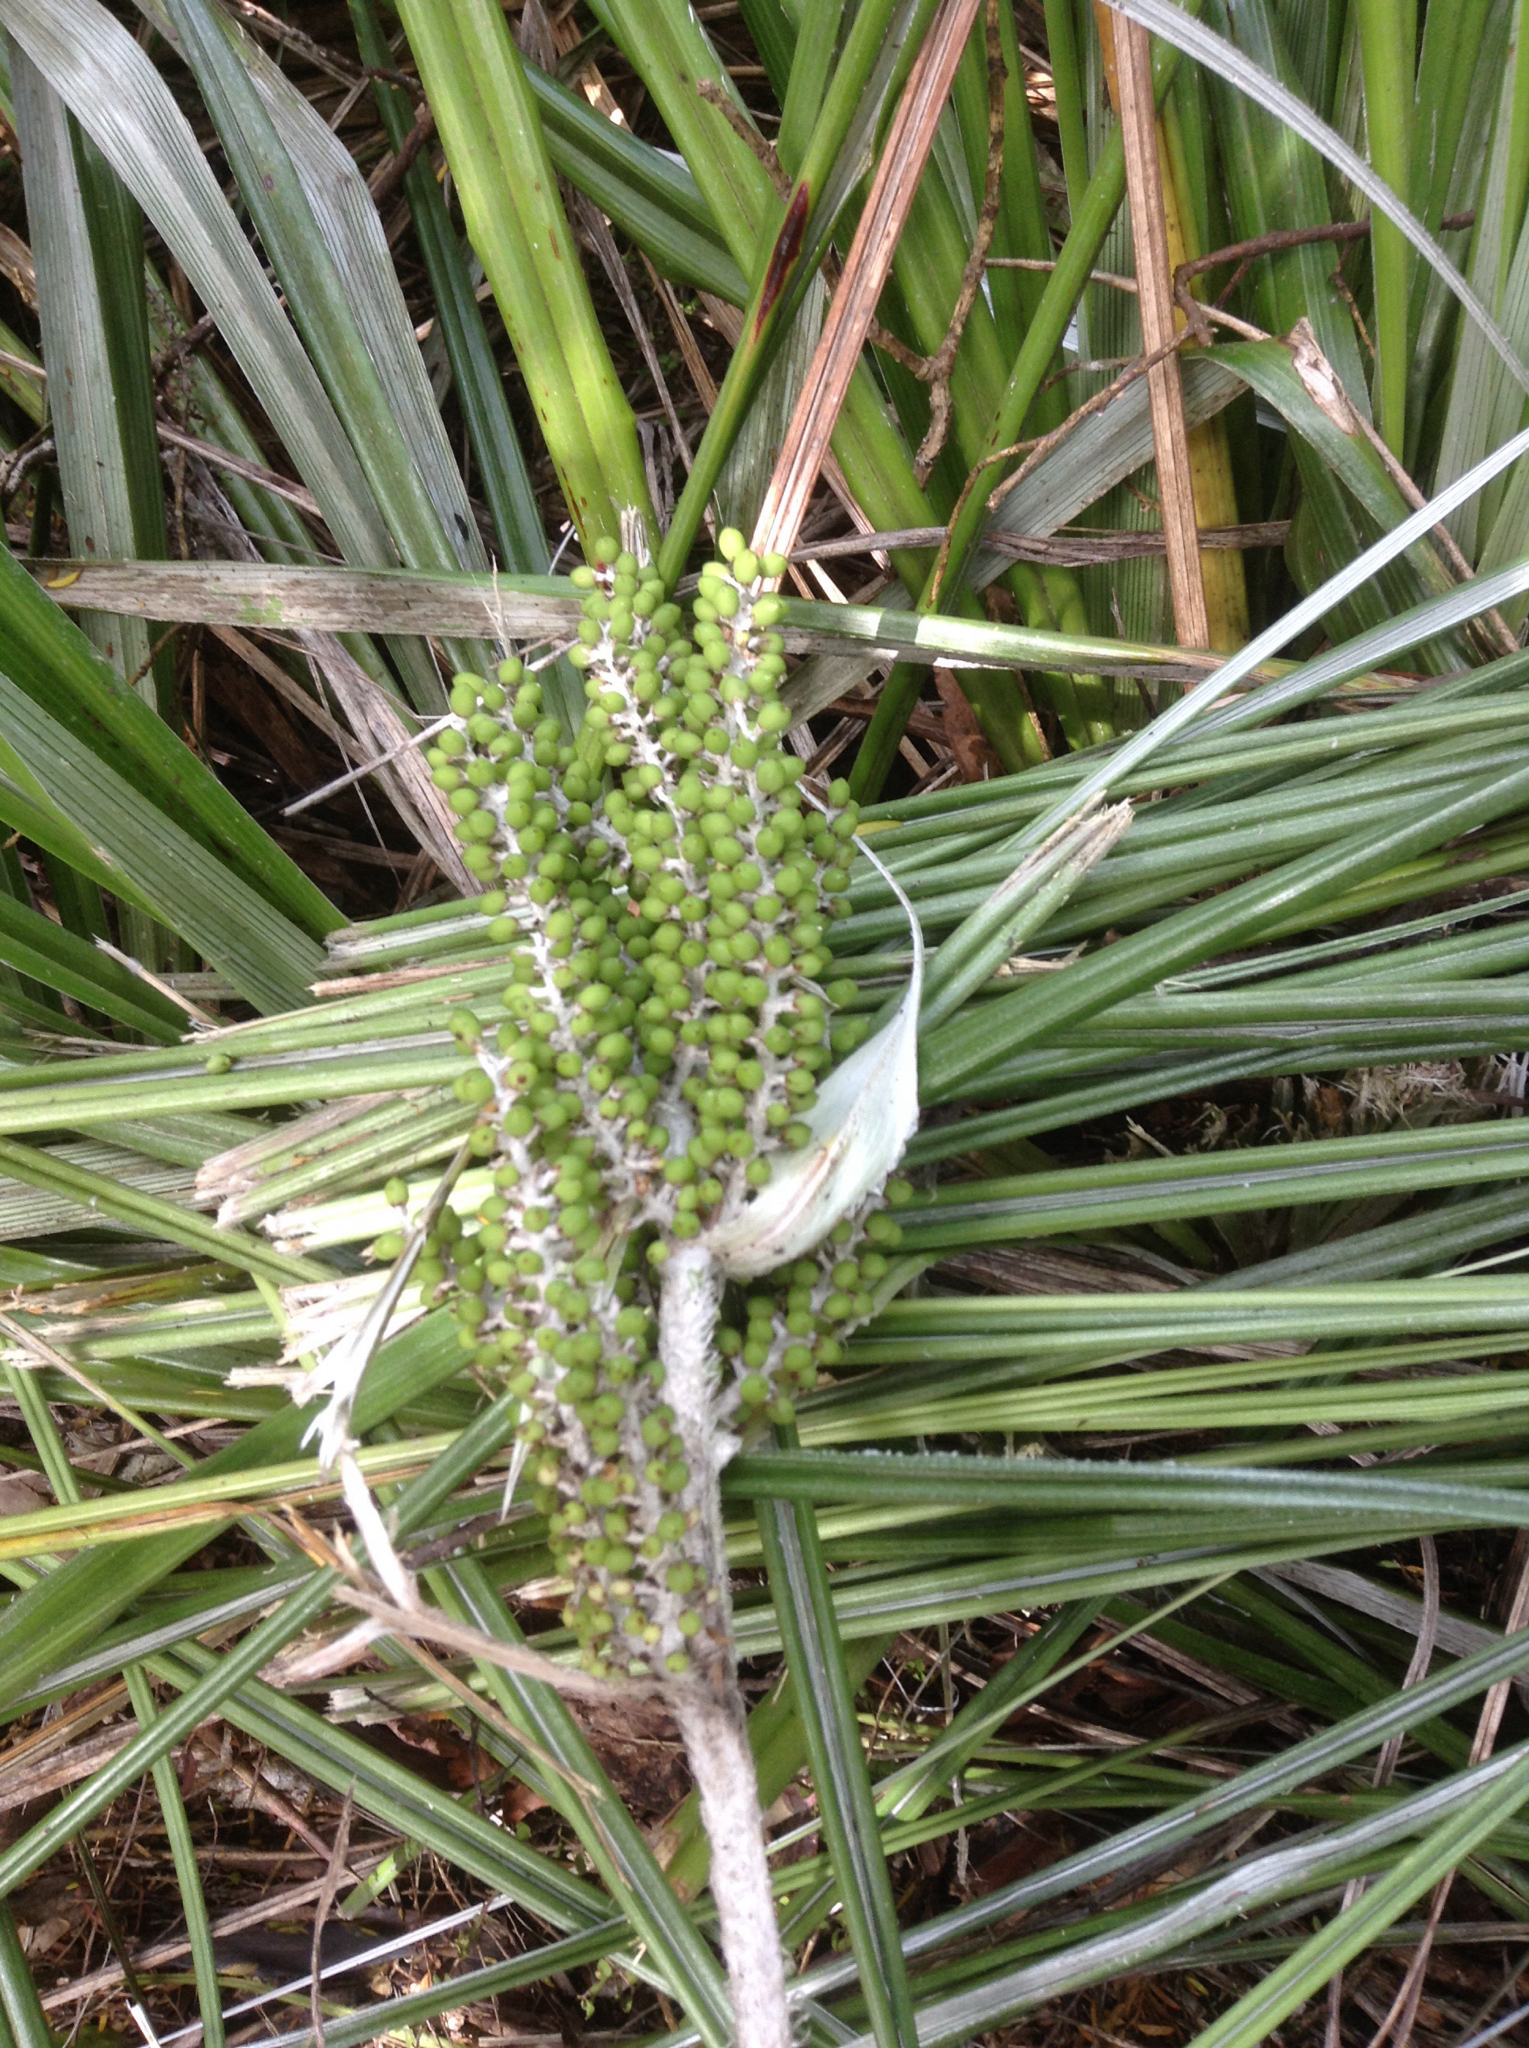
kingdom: Plantae
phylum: Tracheophyta
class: Liliopsida
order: Asparagales
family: Asteliaceae
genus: Astelia
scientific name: Astelia banksii
